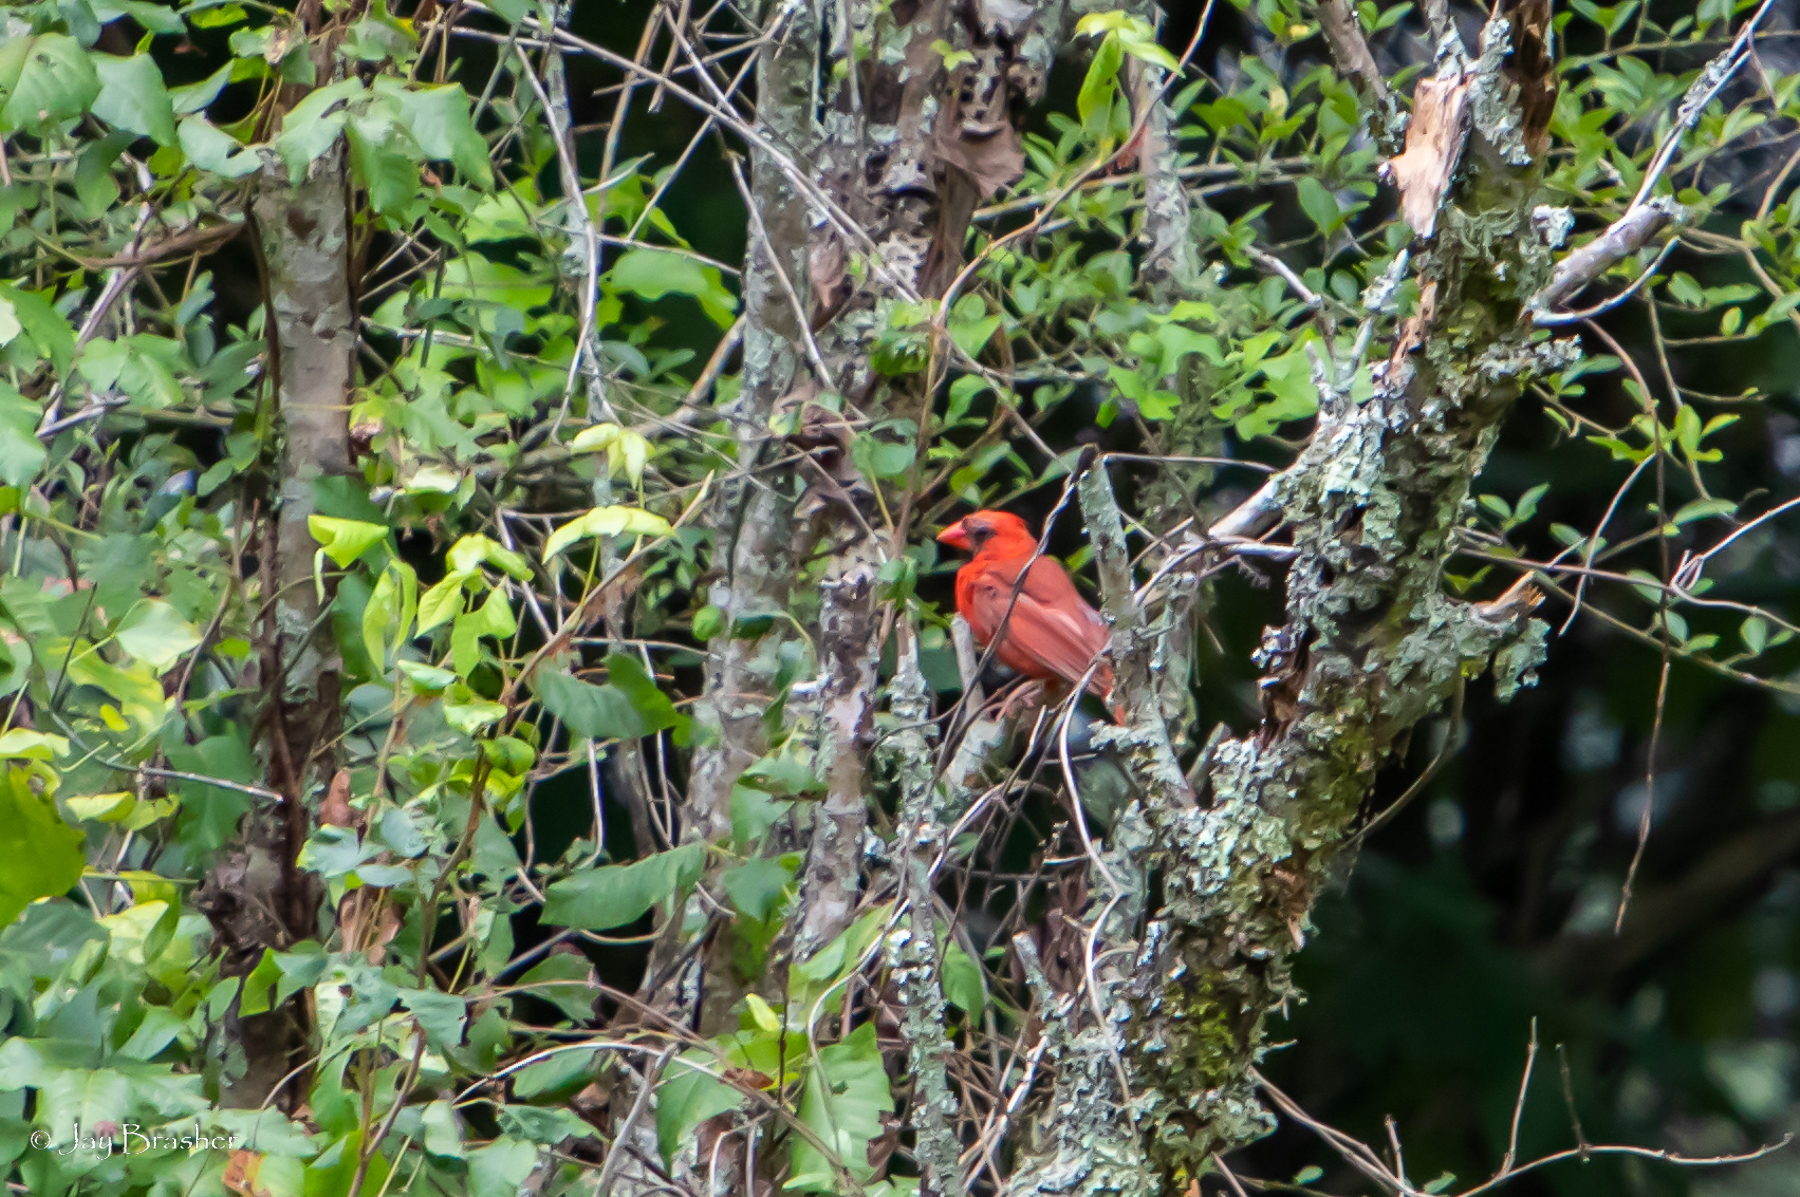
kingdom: Animalia
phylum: Chordata
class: Aves
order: Passeriformes
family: Cardinalidae
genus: Cardinalis
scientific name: Cardinalis cardinalis
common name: Northern cardinal
